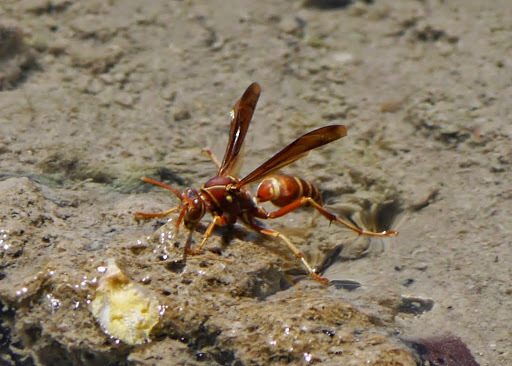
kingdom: Animalia
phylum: Arthropoda
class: Insecta
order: Hymenoptera
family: Eumenidae
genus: Polistes
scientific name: Polistes bellicosus
